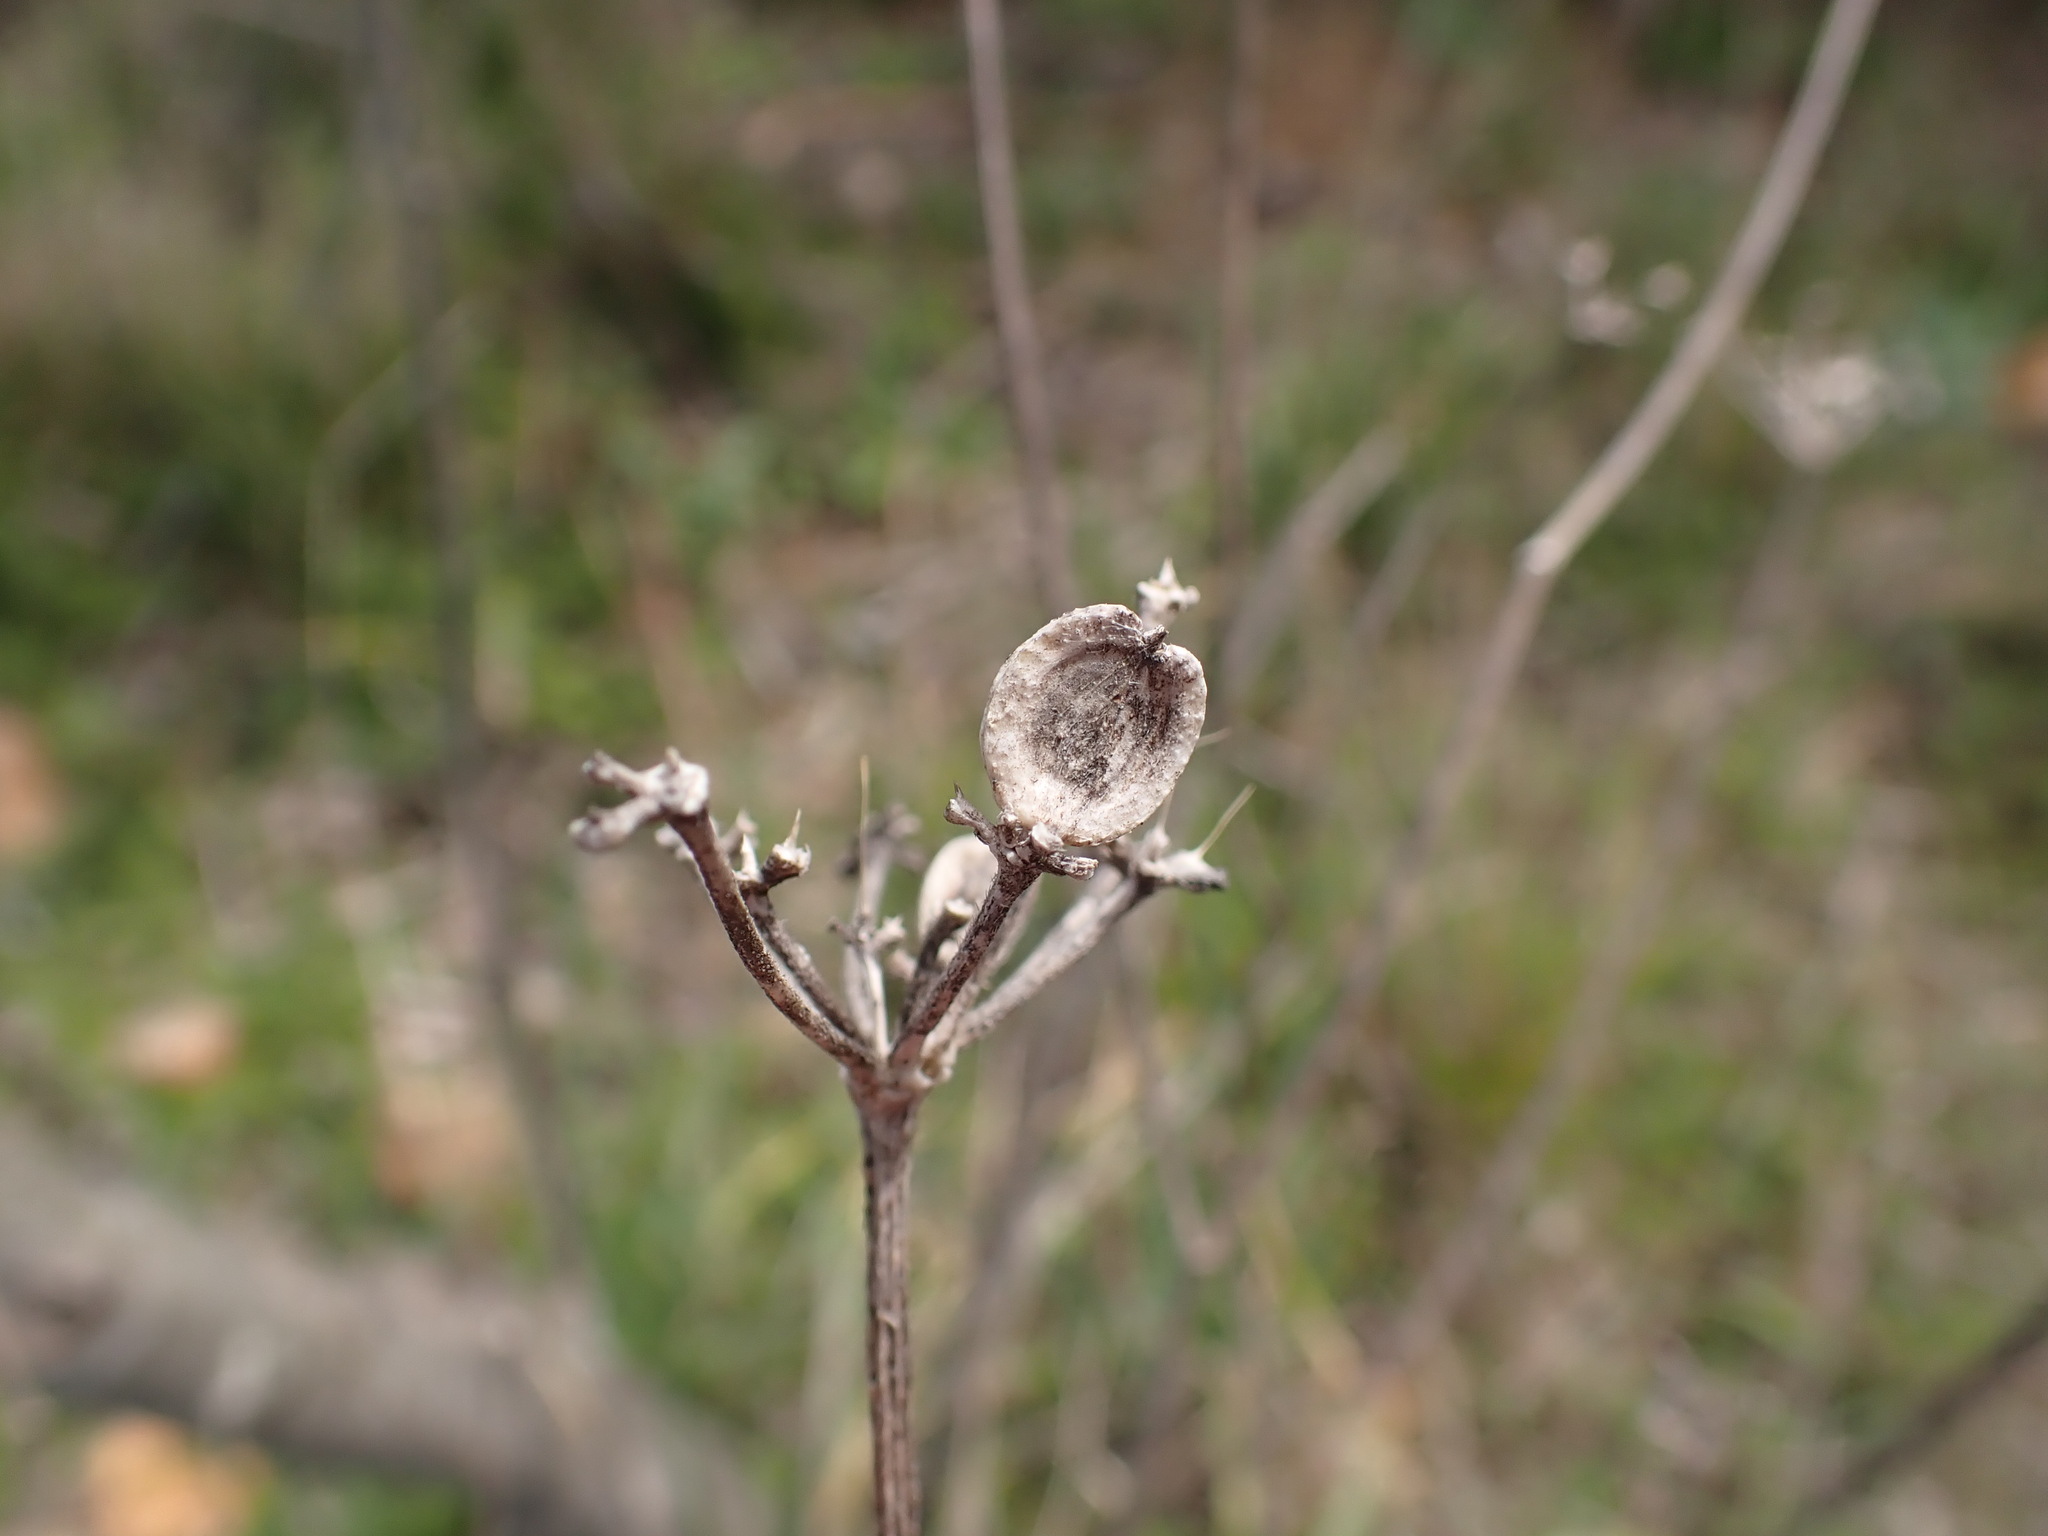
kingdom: Plantae
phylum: Tracheophyta
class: Magnoliopsida
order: Apiales
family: Apiaceae
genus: Tordylium
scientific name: Tordylium maximum
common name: Hartwort
